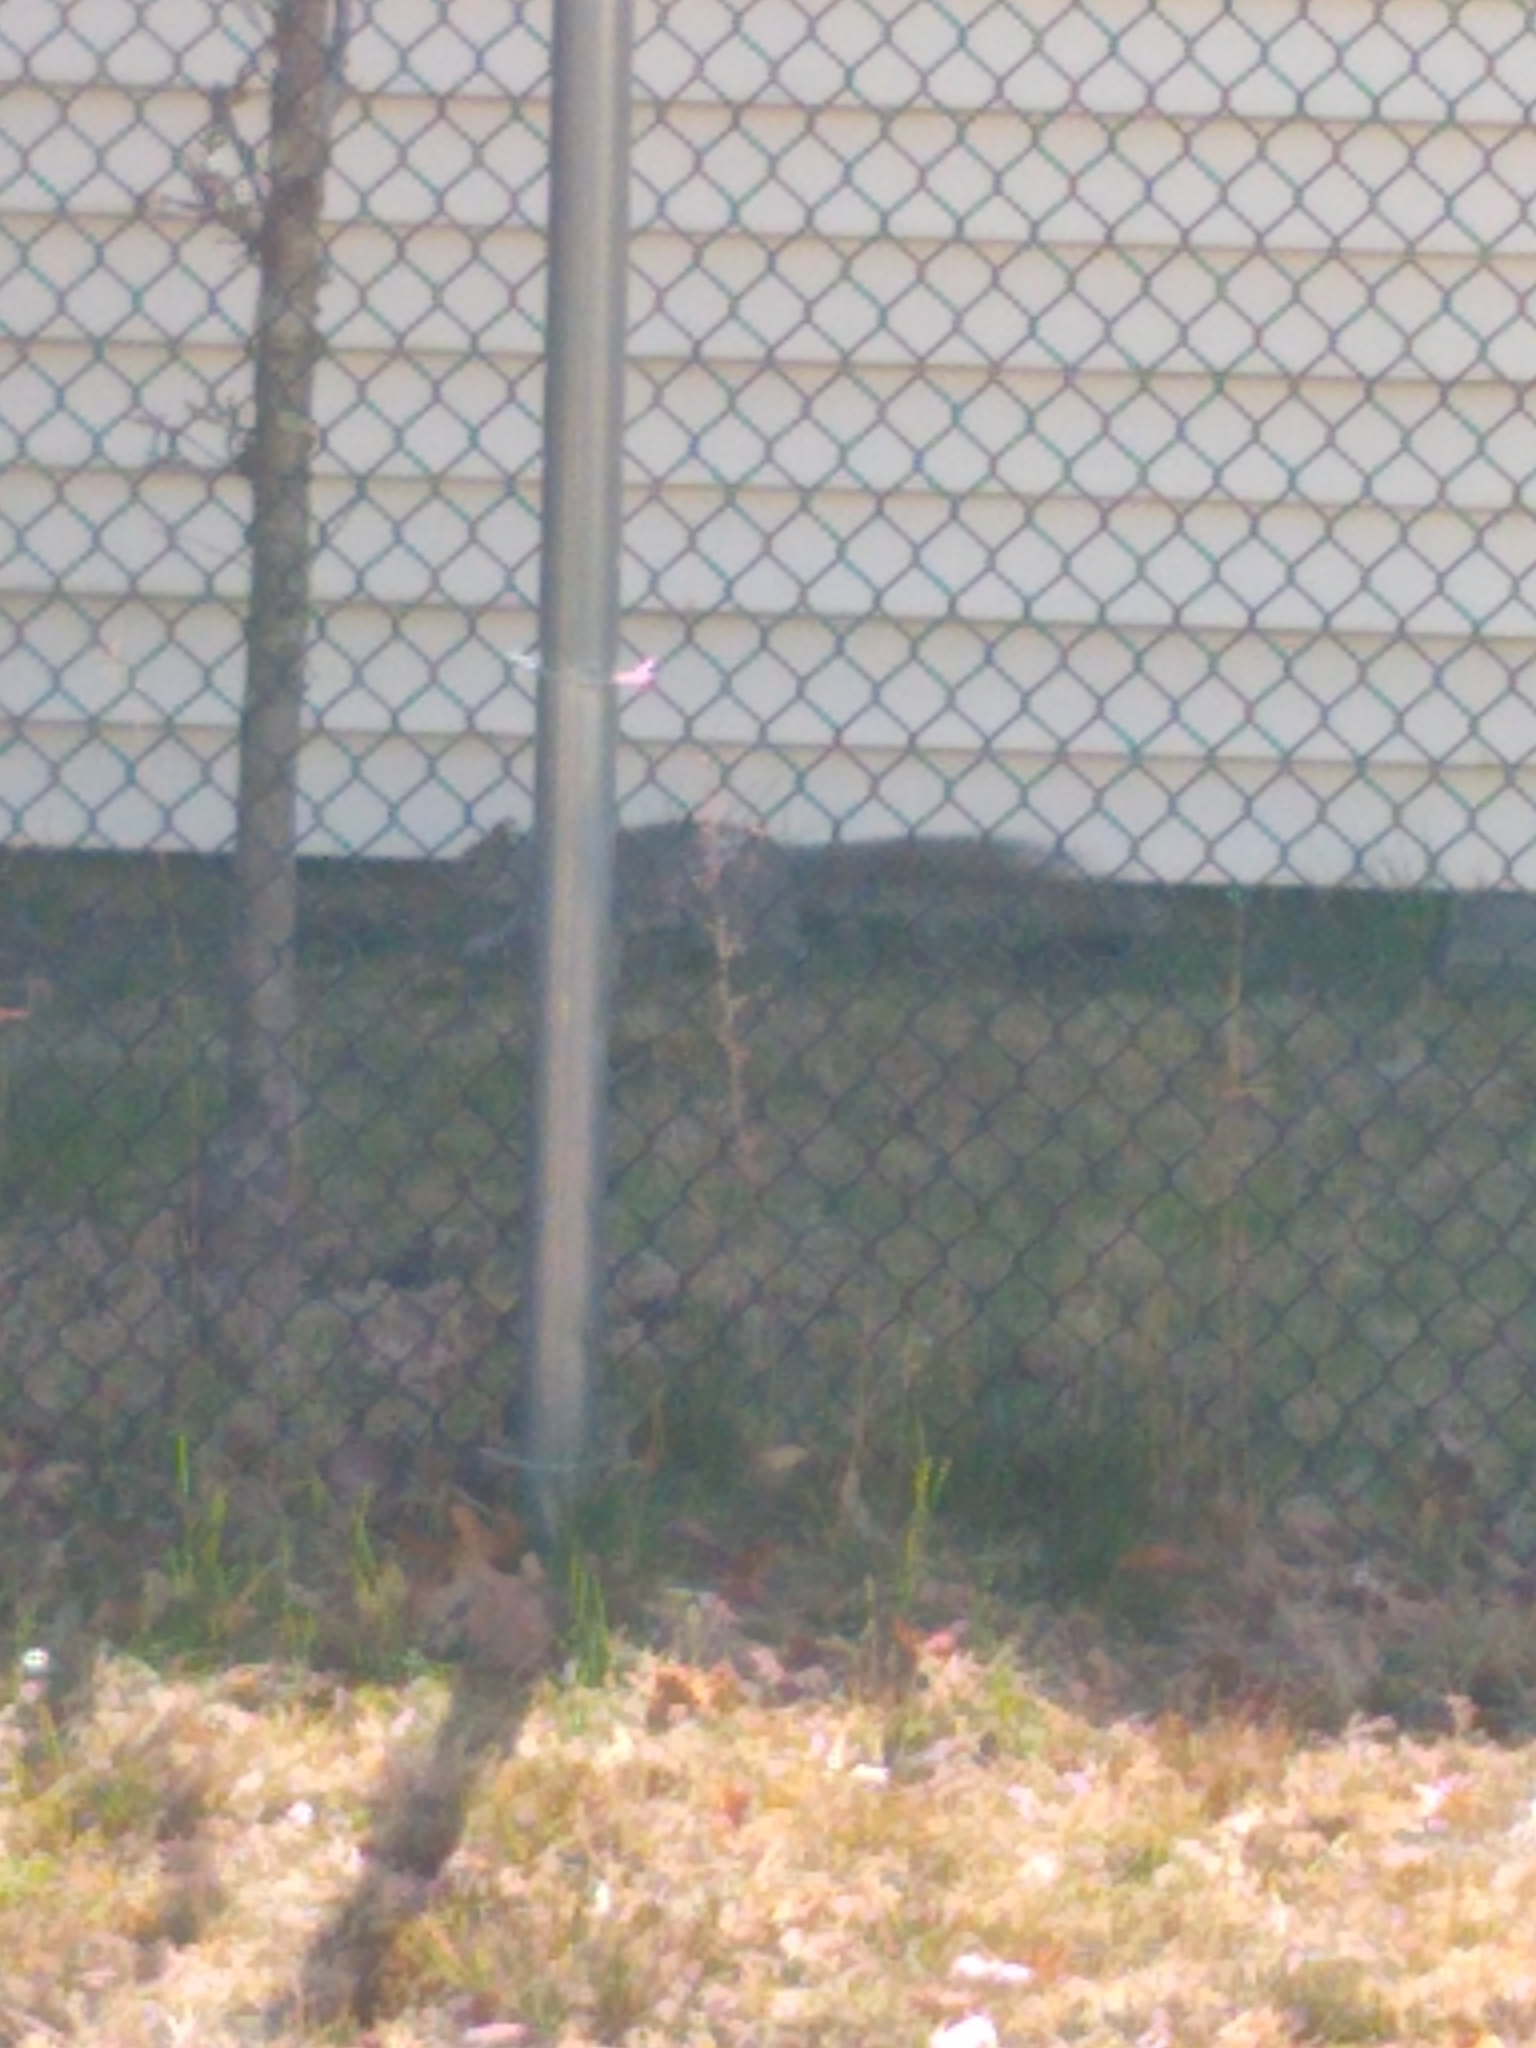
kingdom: Animalia
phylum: Chordata
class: Mammalia
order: Rodentia
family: Sciuridae
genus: Sciurus
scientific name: Sciurus carolinensis
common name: Eastern gray squirrel
